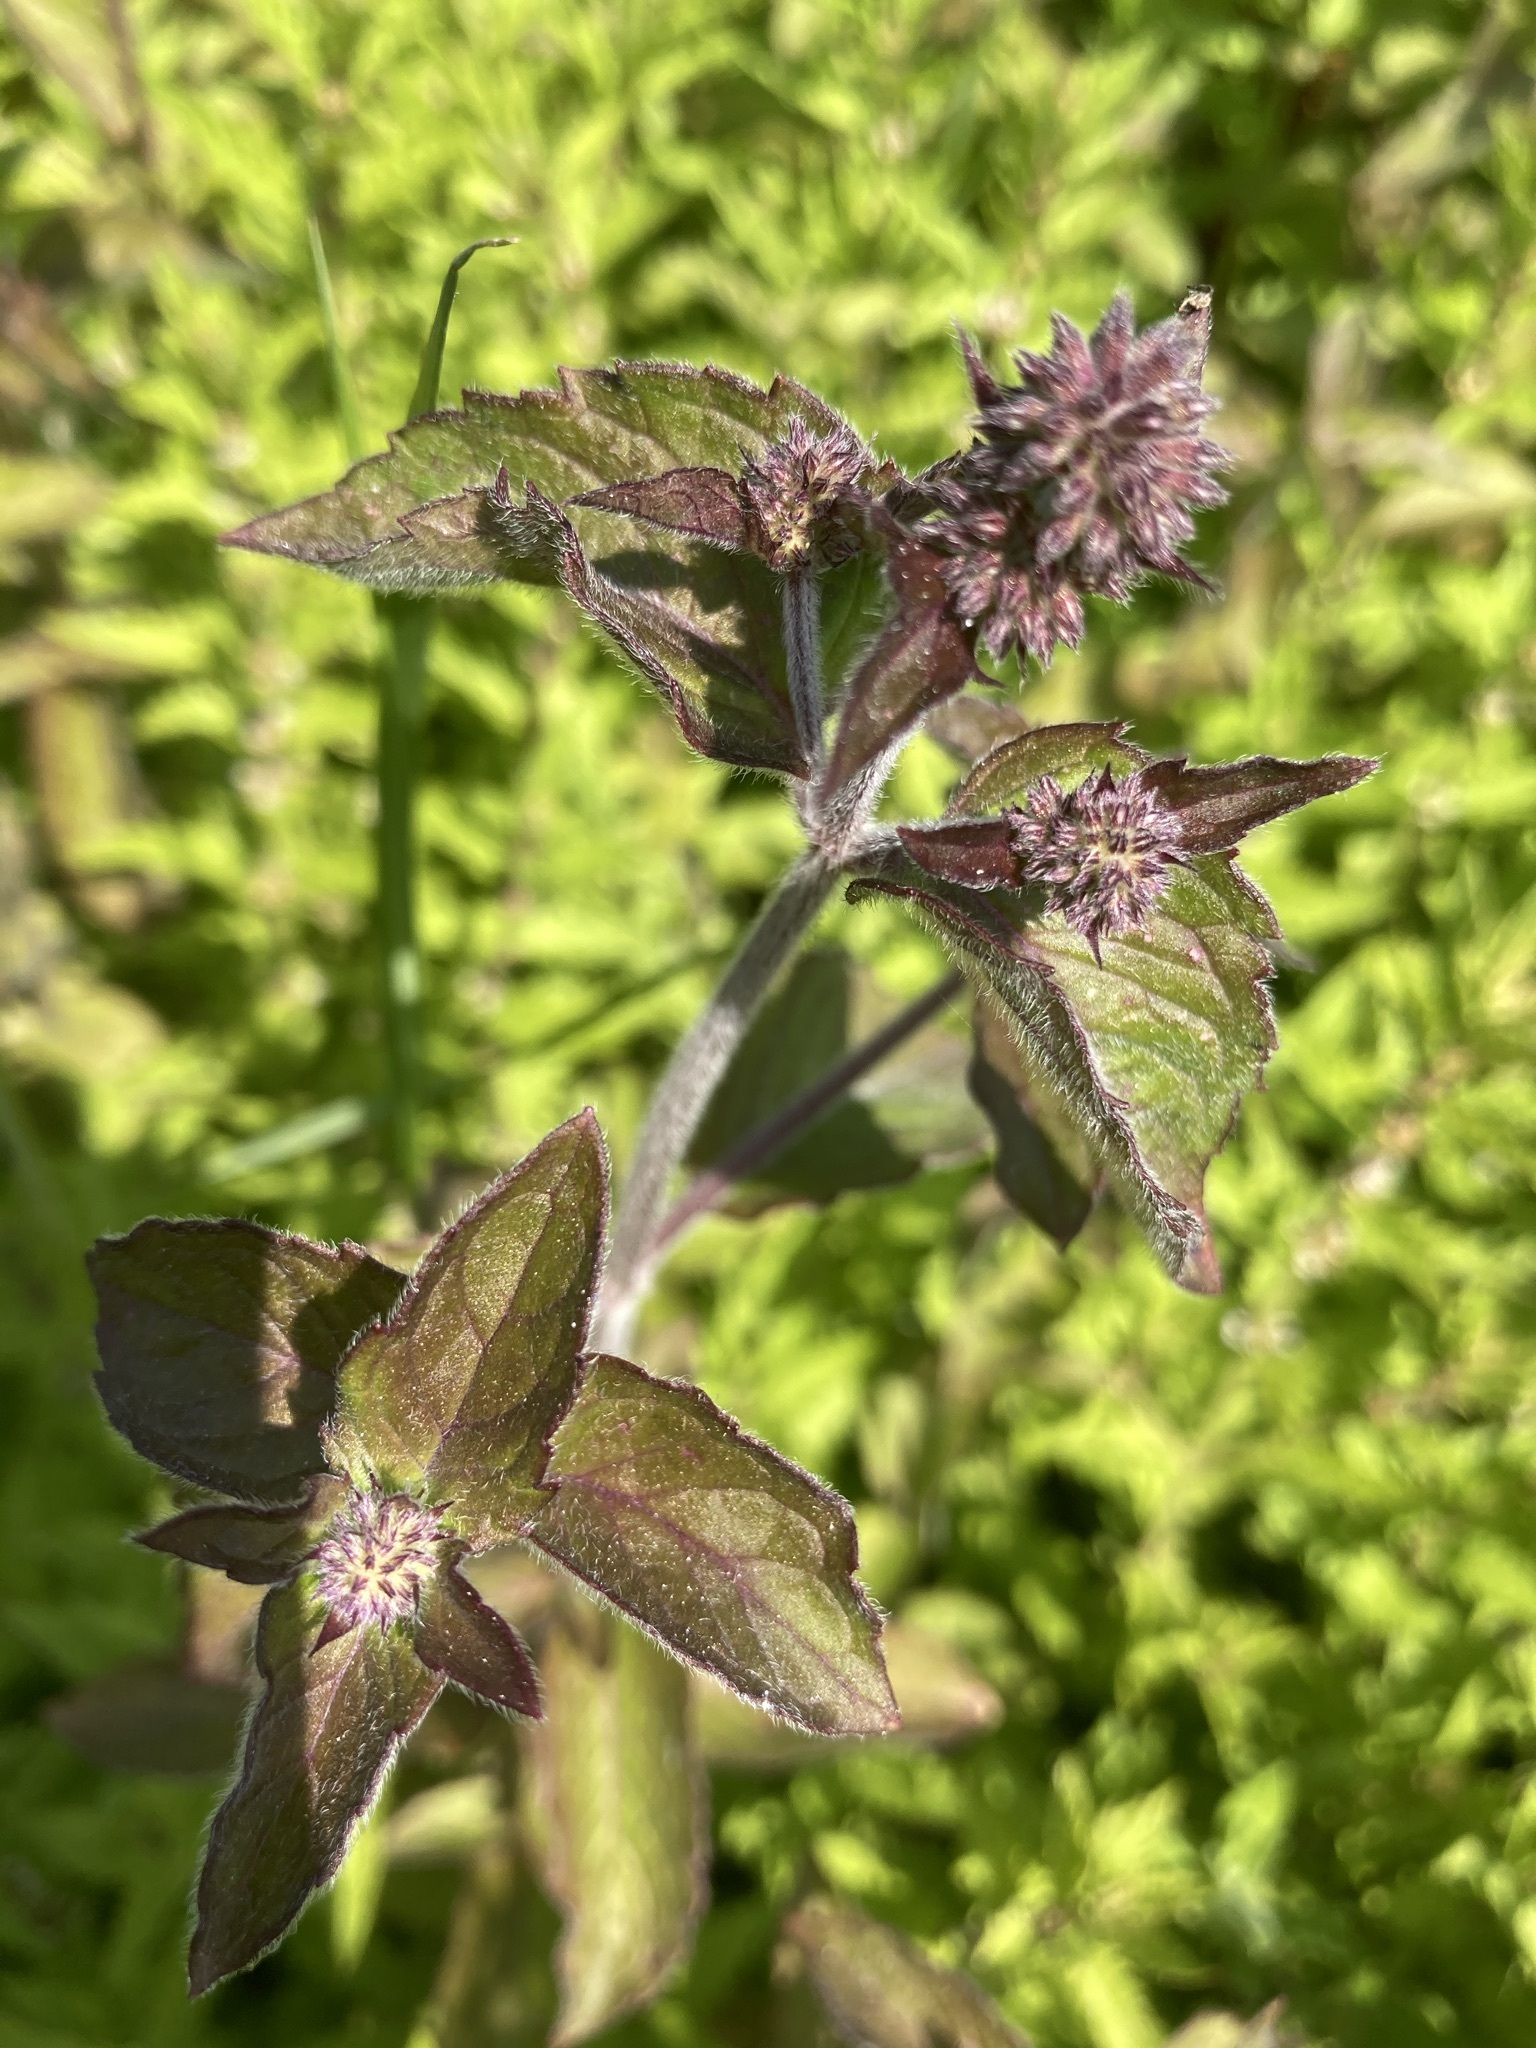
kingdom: Plantae
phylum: Tracheophyta
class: Magnoliopsida
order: Lamiales
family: Lamiaceae
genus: Mentha
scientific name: Mentha aquatica
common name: Water mint
